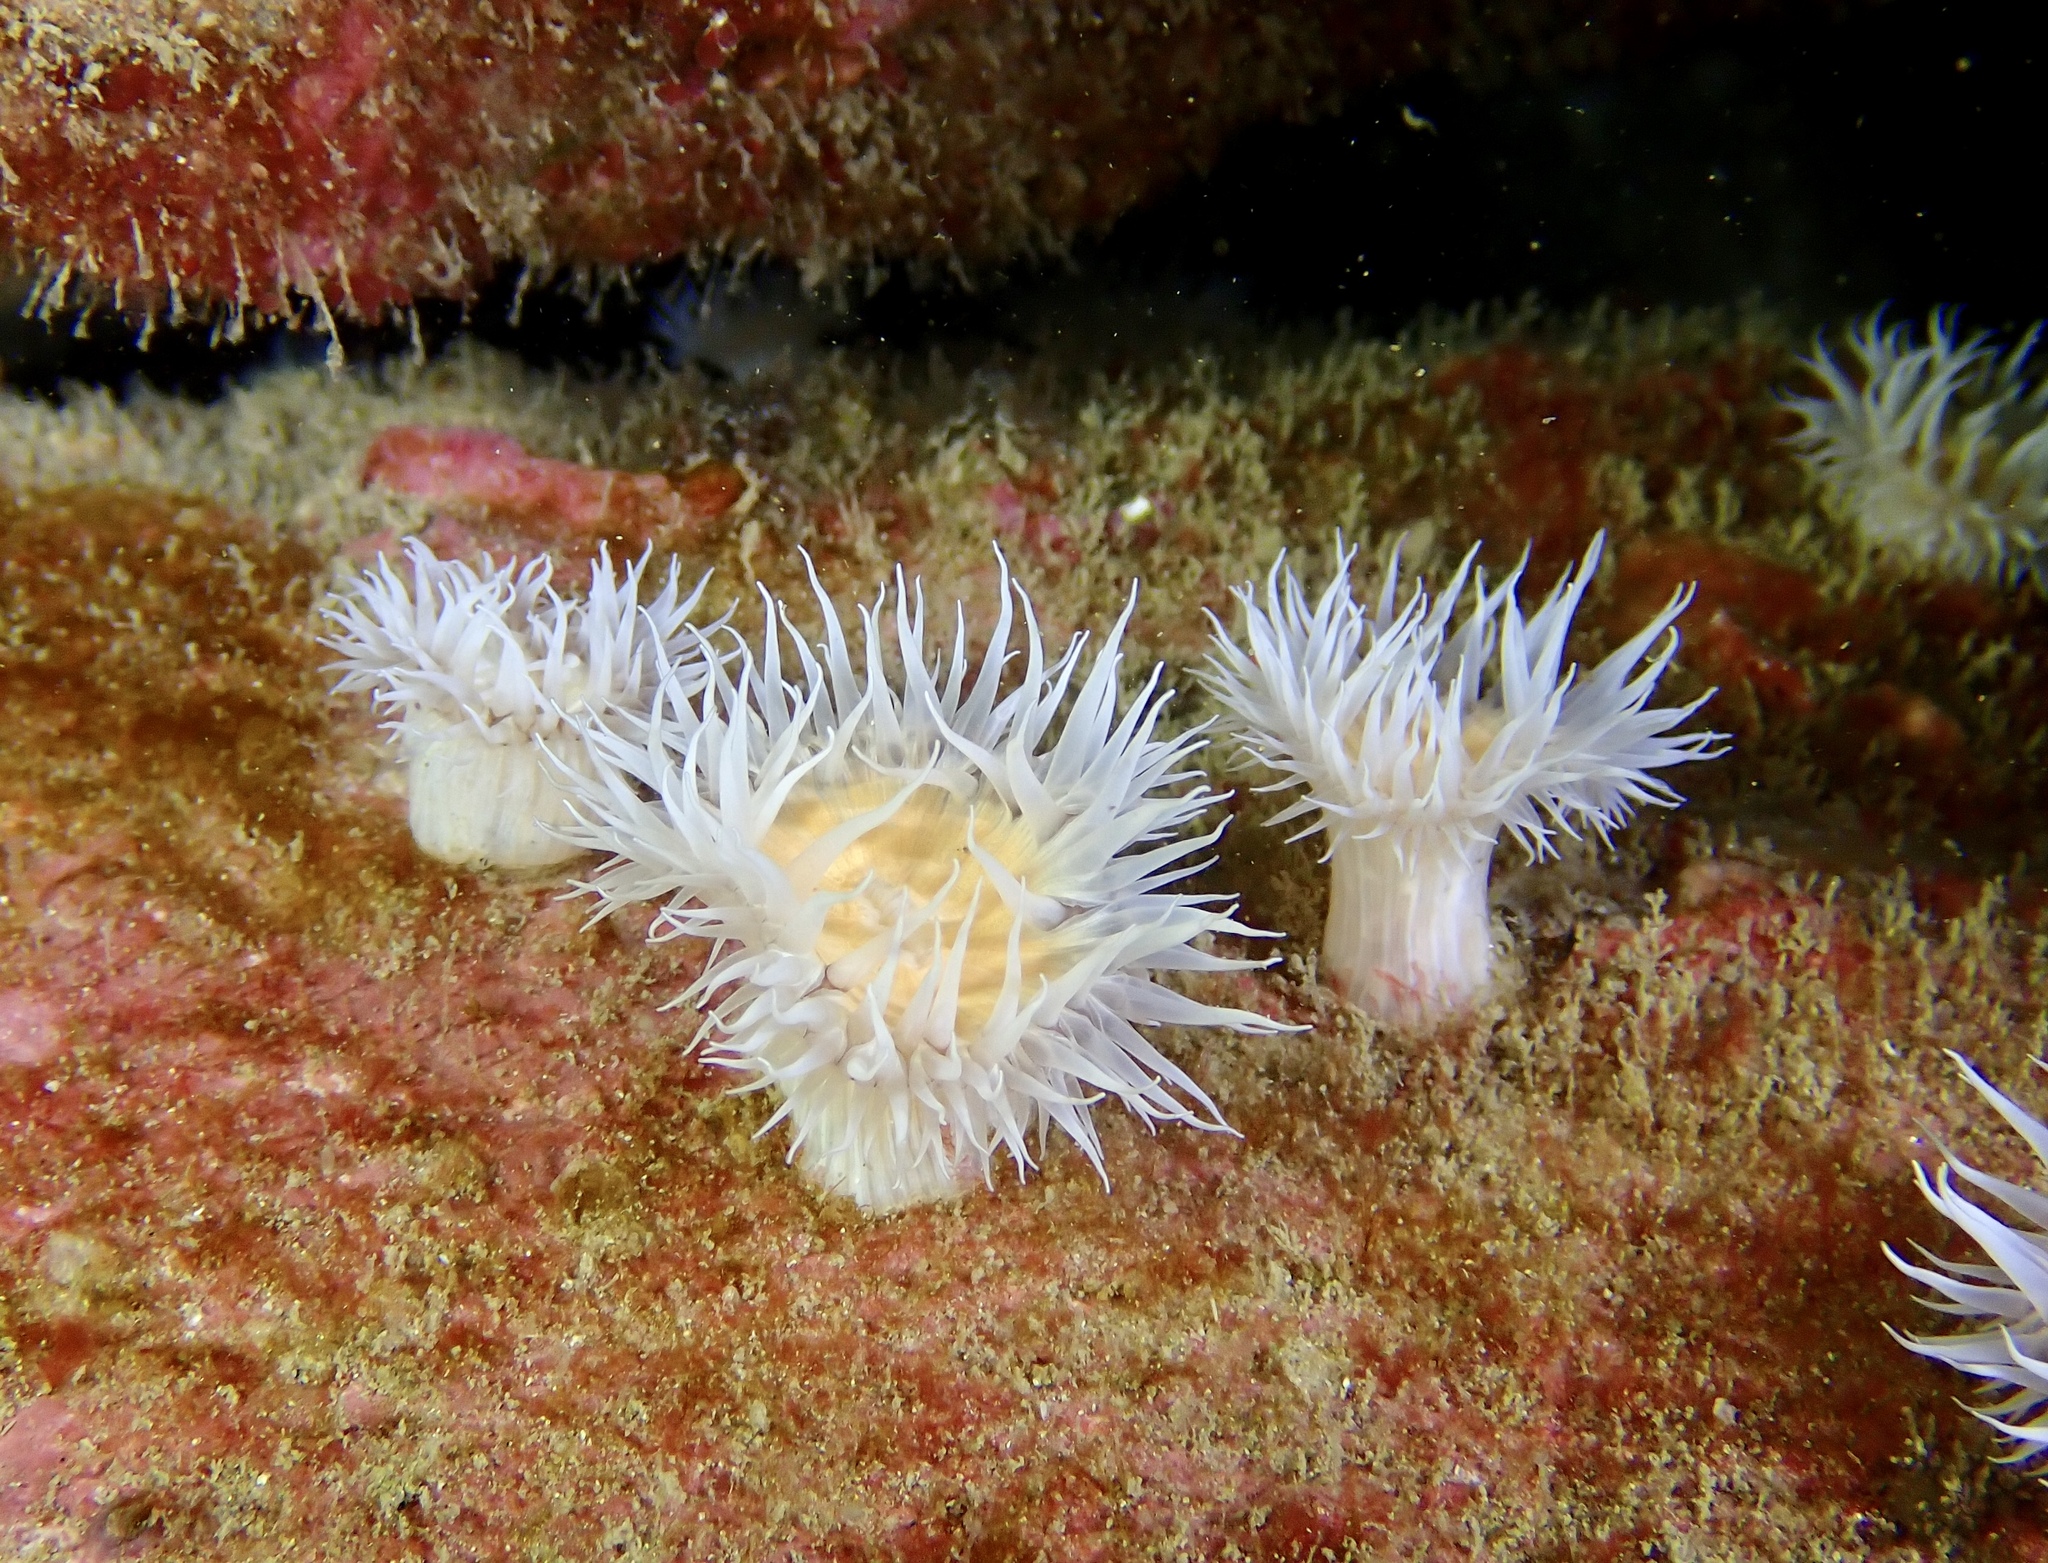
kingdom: Animalia
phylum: Cnidaria
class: Anthozoa
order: Actiniaria
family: Sagartiidae
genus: Actinothoe
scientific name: Actinothoe sphyrodeta
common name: Sandalled anemone
